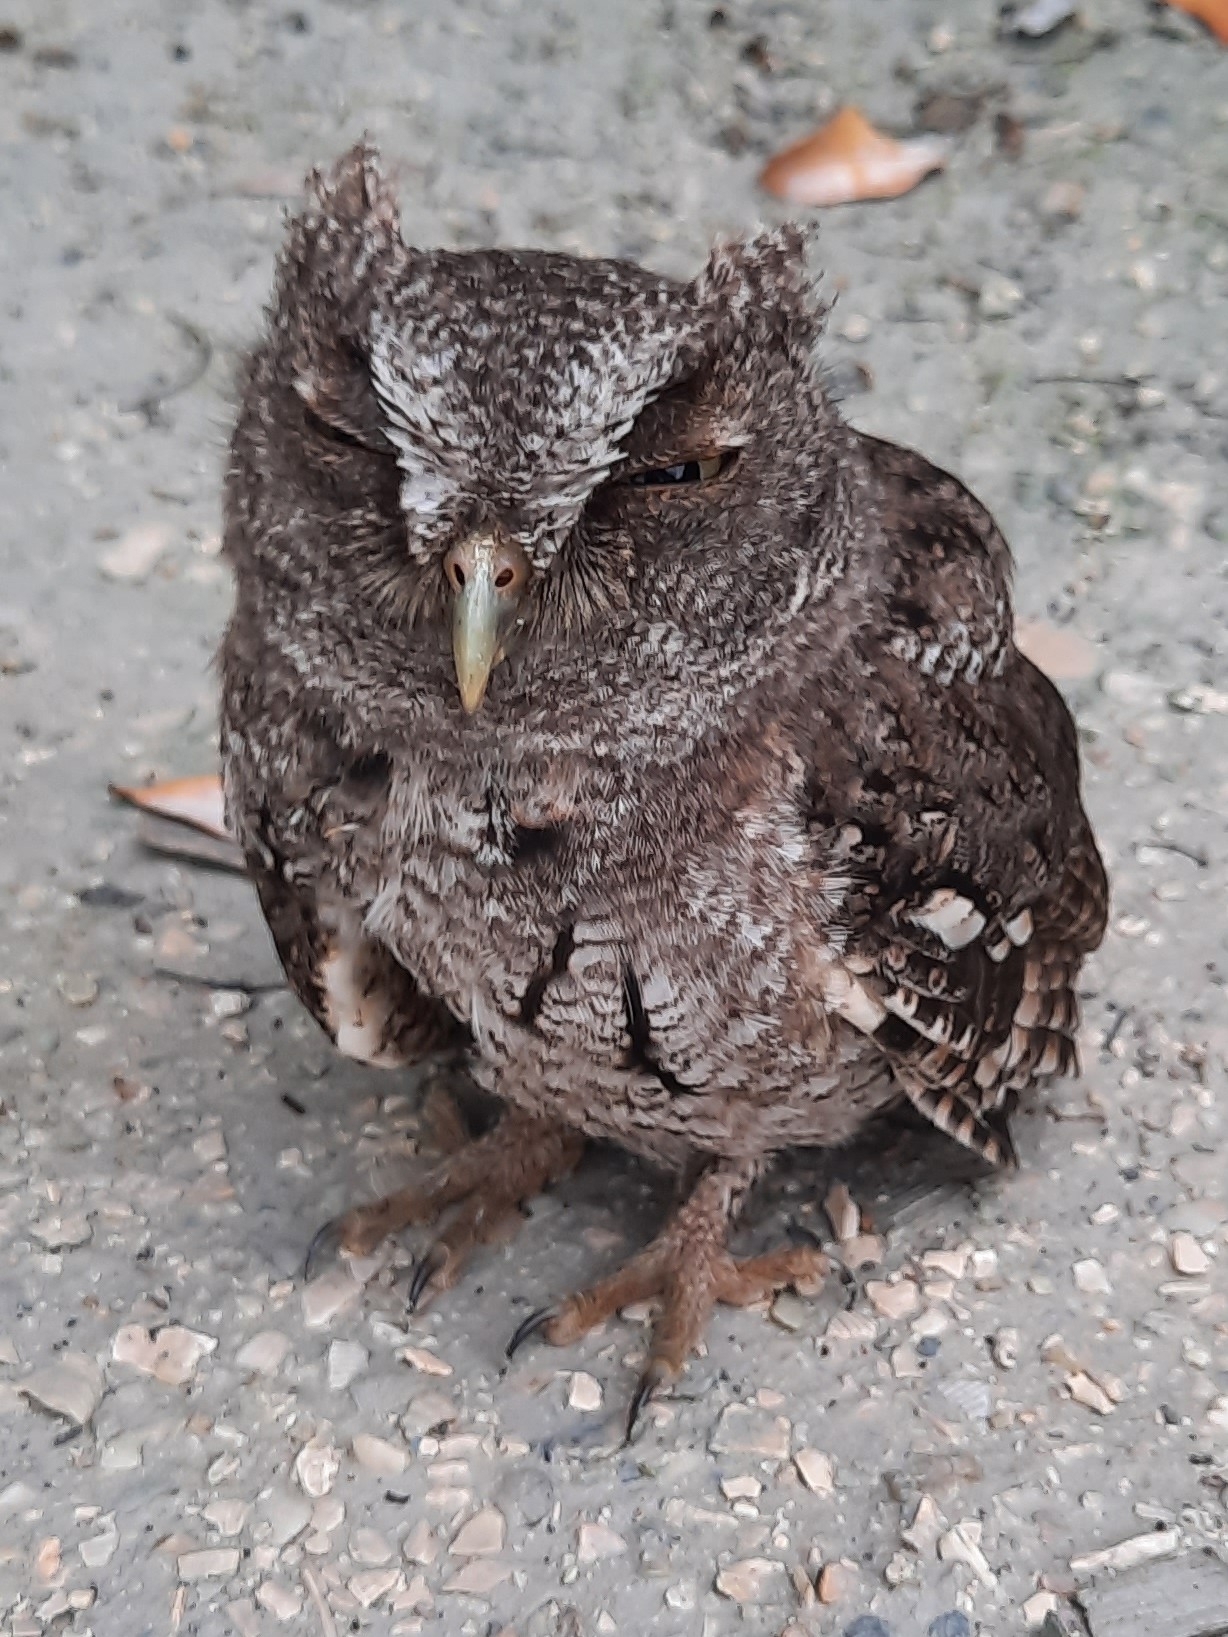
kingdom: Animalia
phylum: Chordata
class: Aves
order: Strigiformes
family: Strigidae
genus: Megascops
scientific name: Megascops asio
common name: Eastern screech-owl
